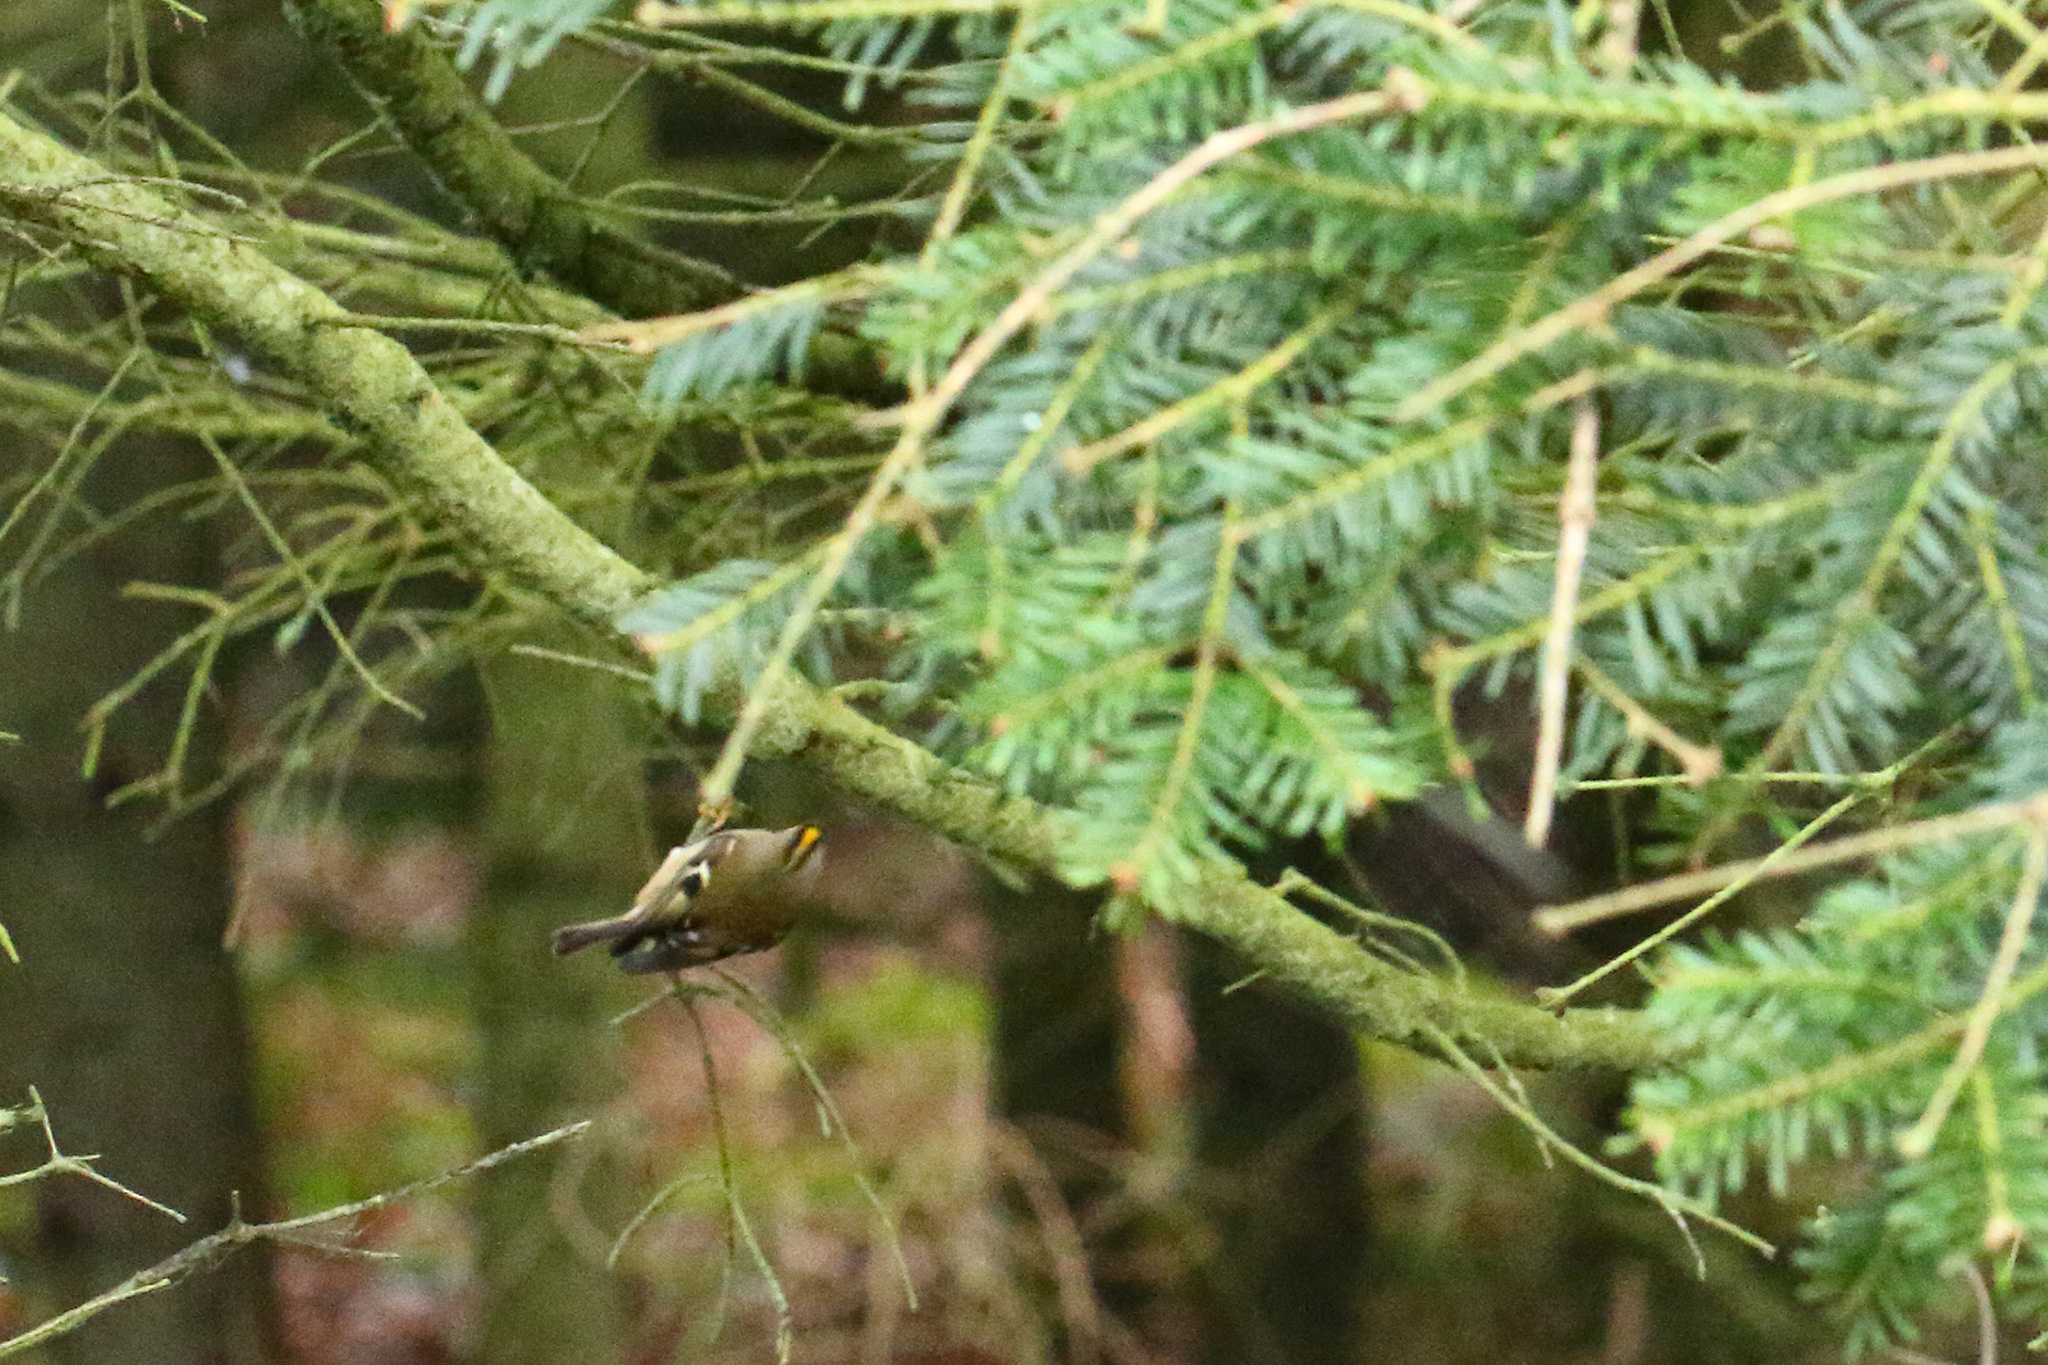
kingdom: Animalia
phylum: Chordata
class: Aves
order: Passeriformes
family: Regulidae
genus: Regulus
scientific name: Regulus regulus
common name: Goldcrest
